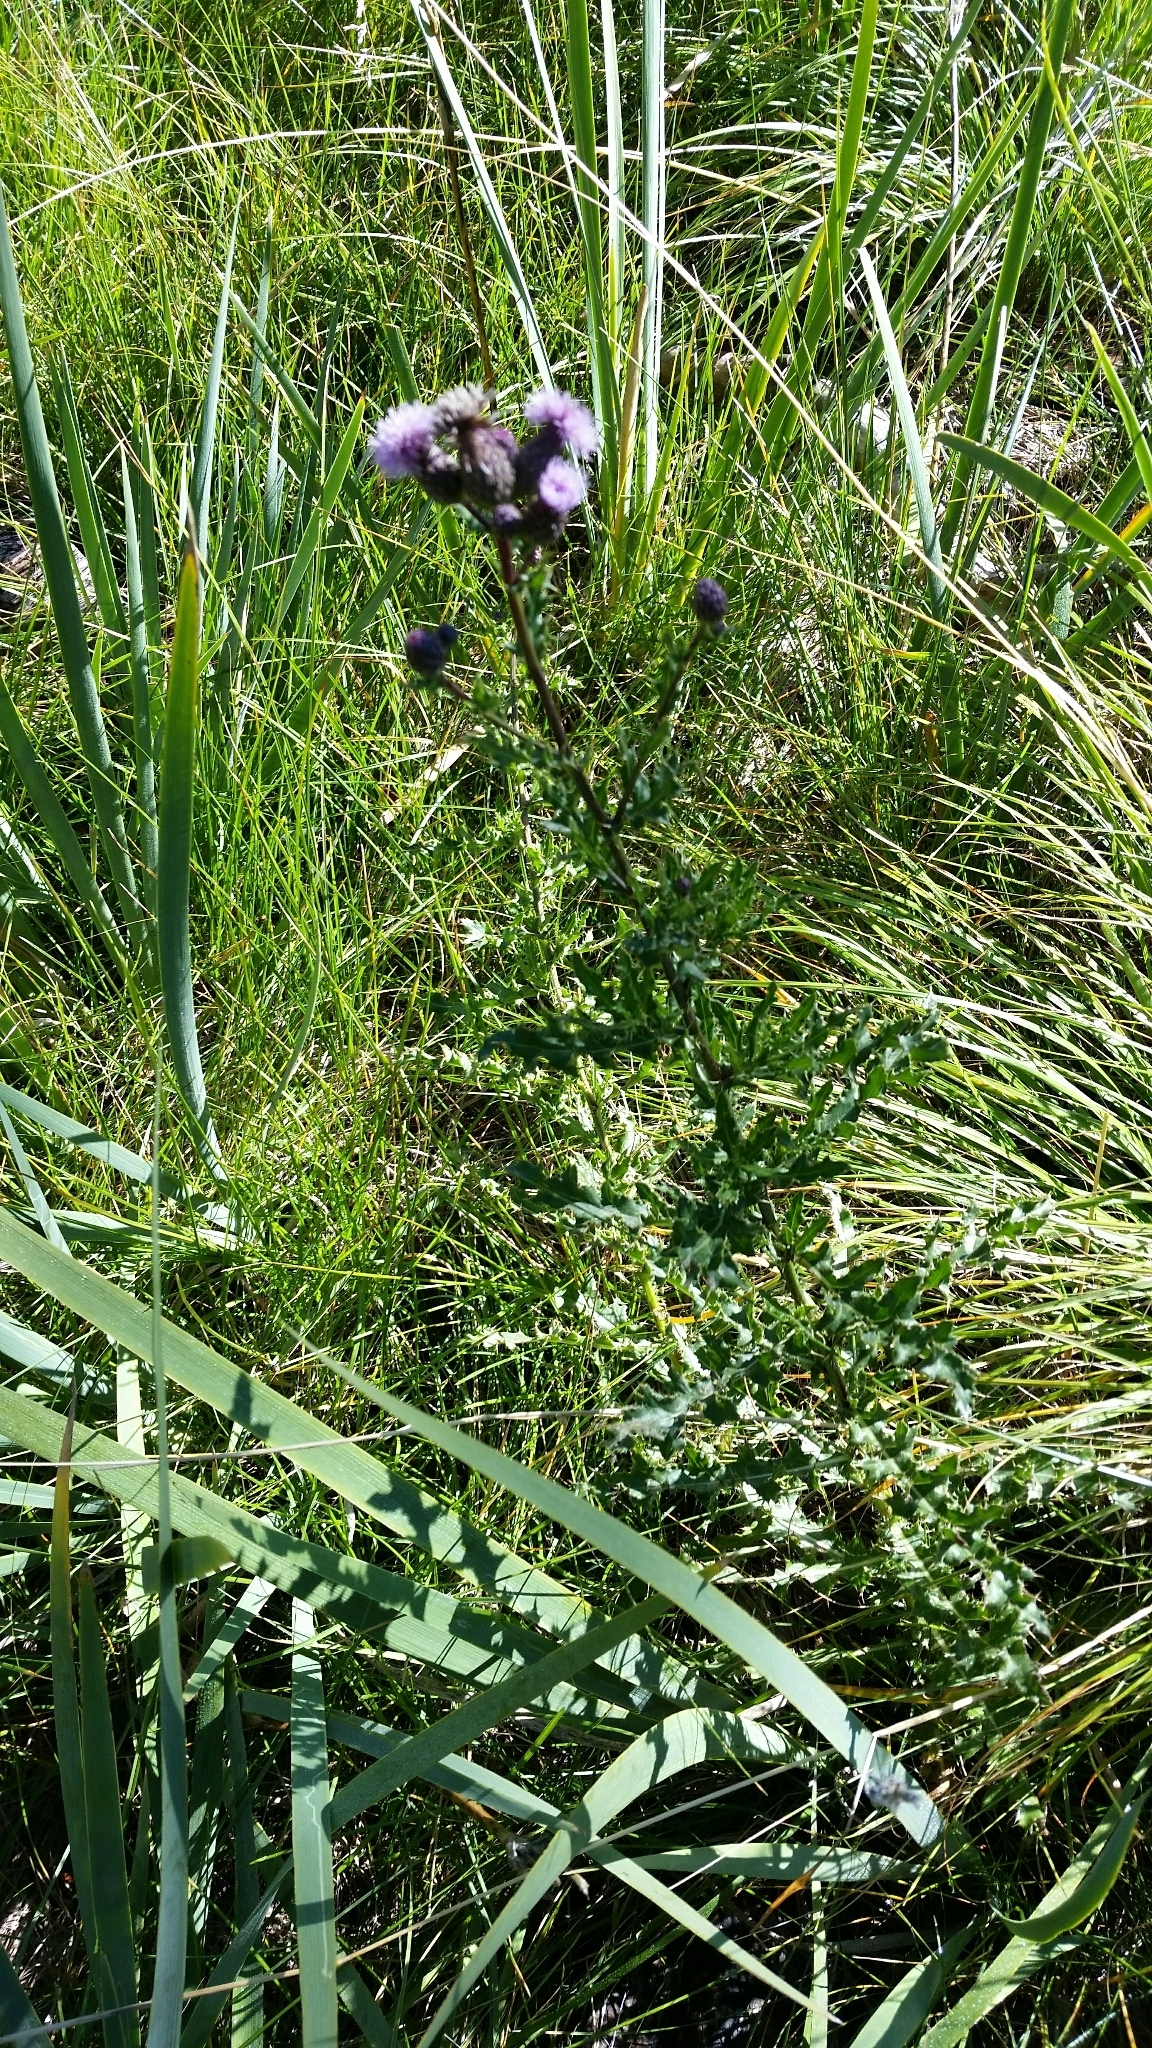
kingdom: Plantae
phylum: Tracheophyta
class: Magnoliopsida
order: Asterales
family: Asteraceae
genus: Cirsium
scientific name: Cirsium arvense
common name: Creeping thistle
